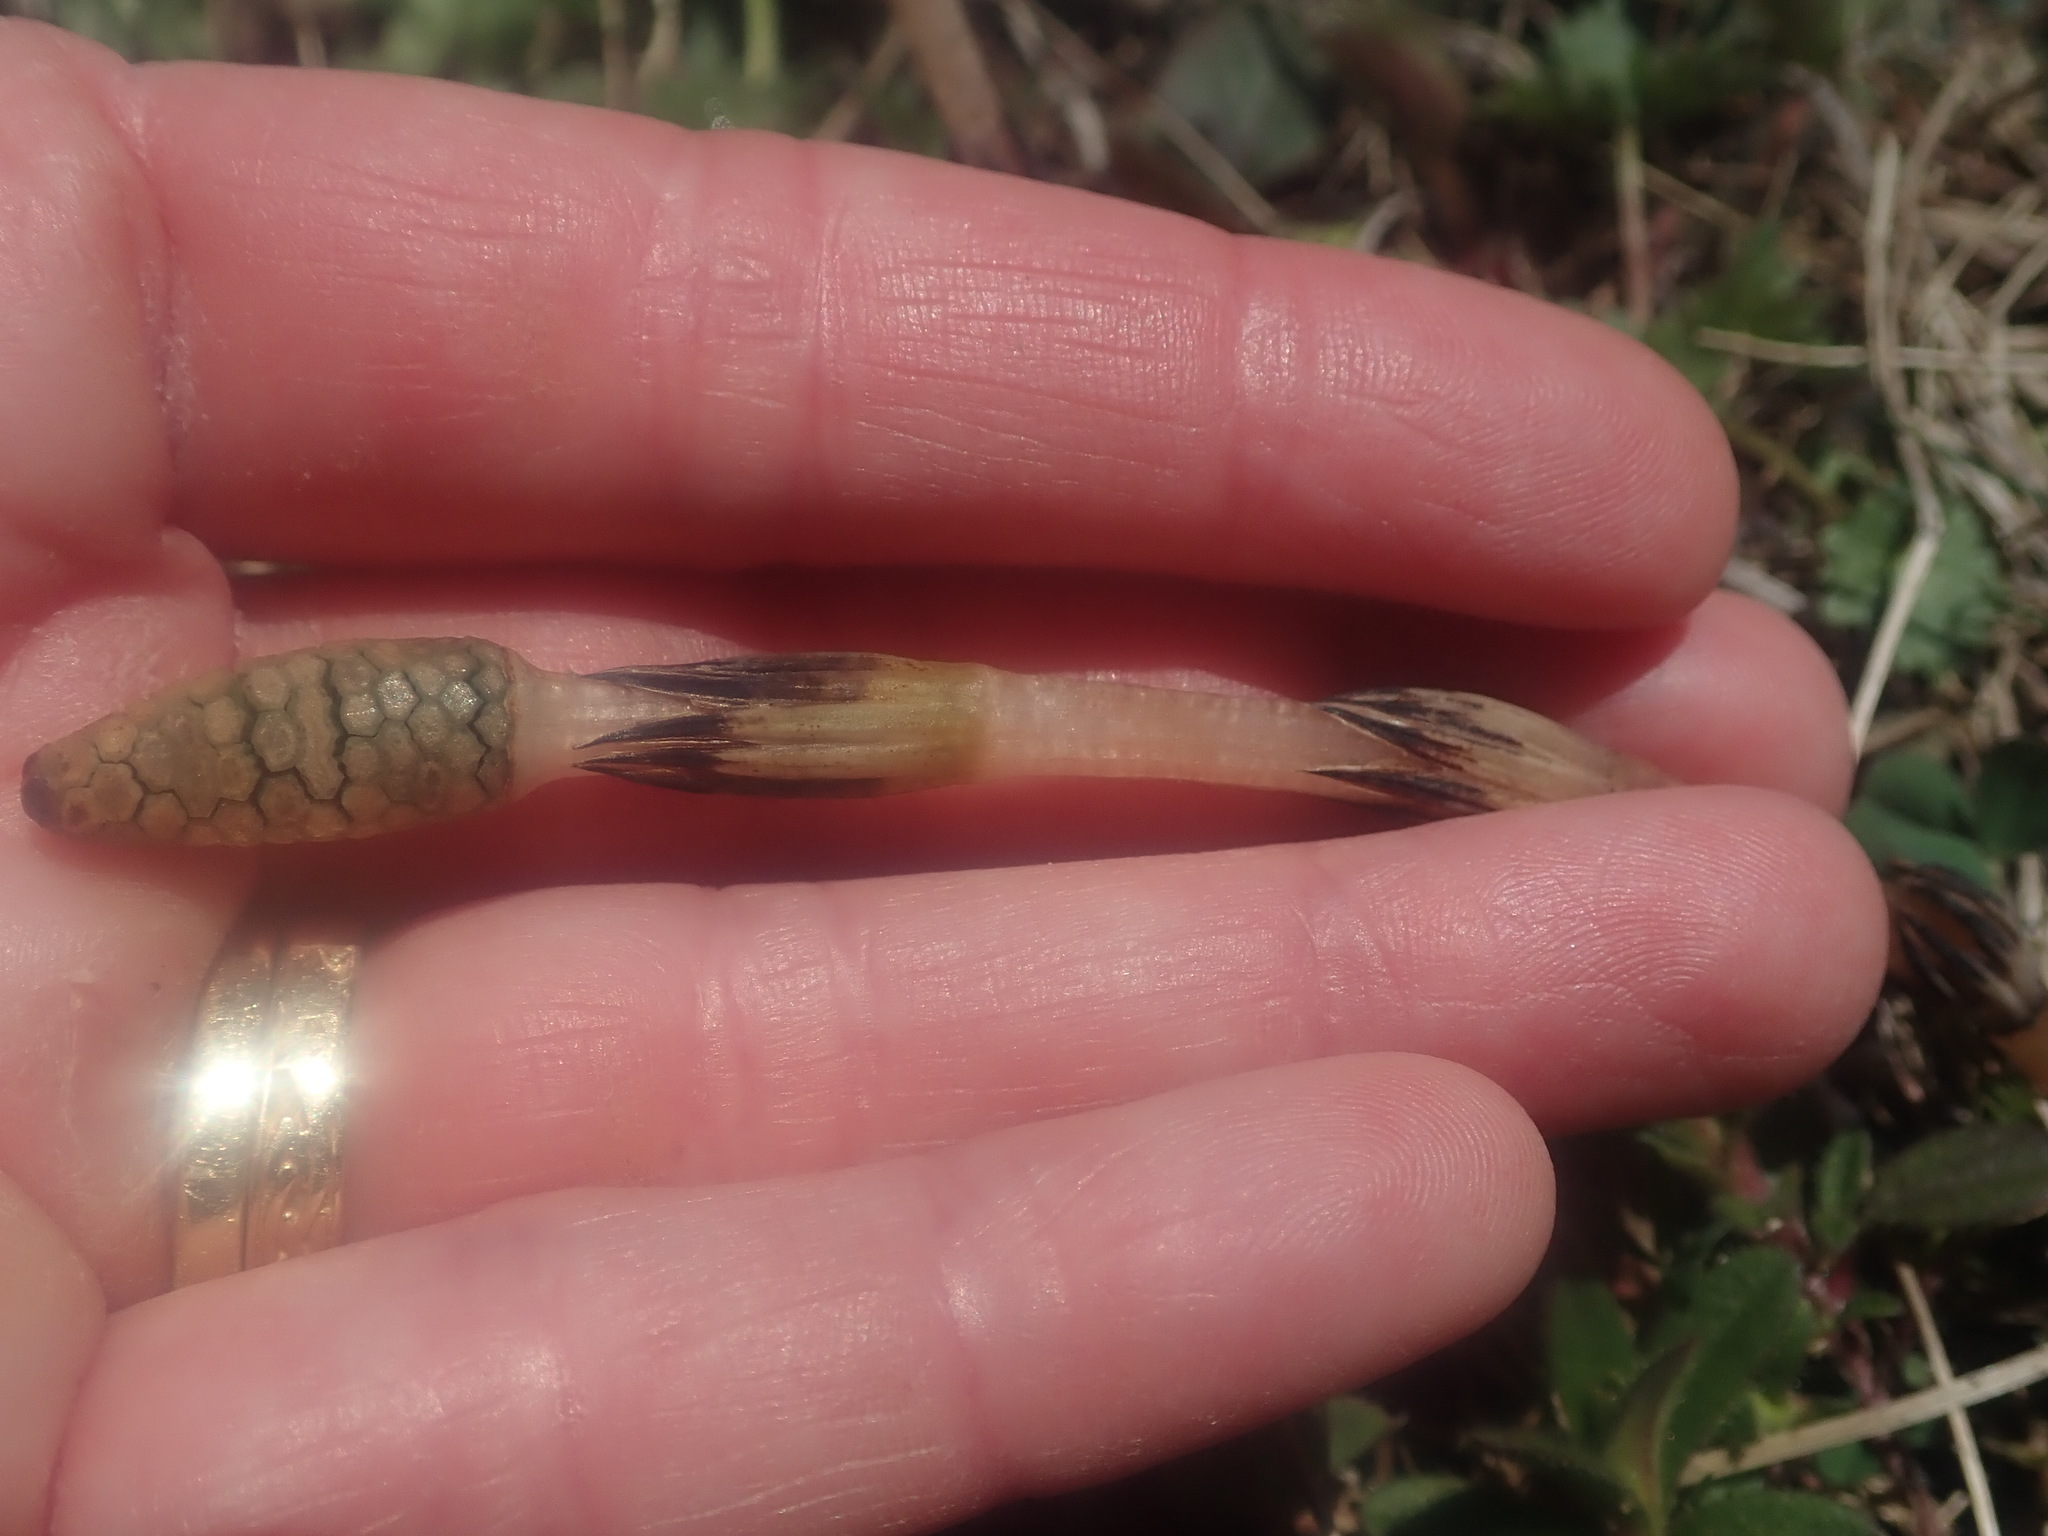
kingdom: Plantae
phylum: Tracheophyta
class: Polypodiopsida
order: Equisetales
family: Equisetaceae
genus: Equisetum
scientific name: Equisetum arvense
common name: Field horsetail
